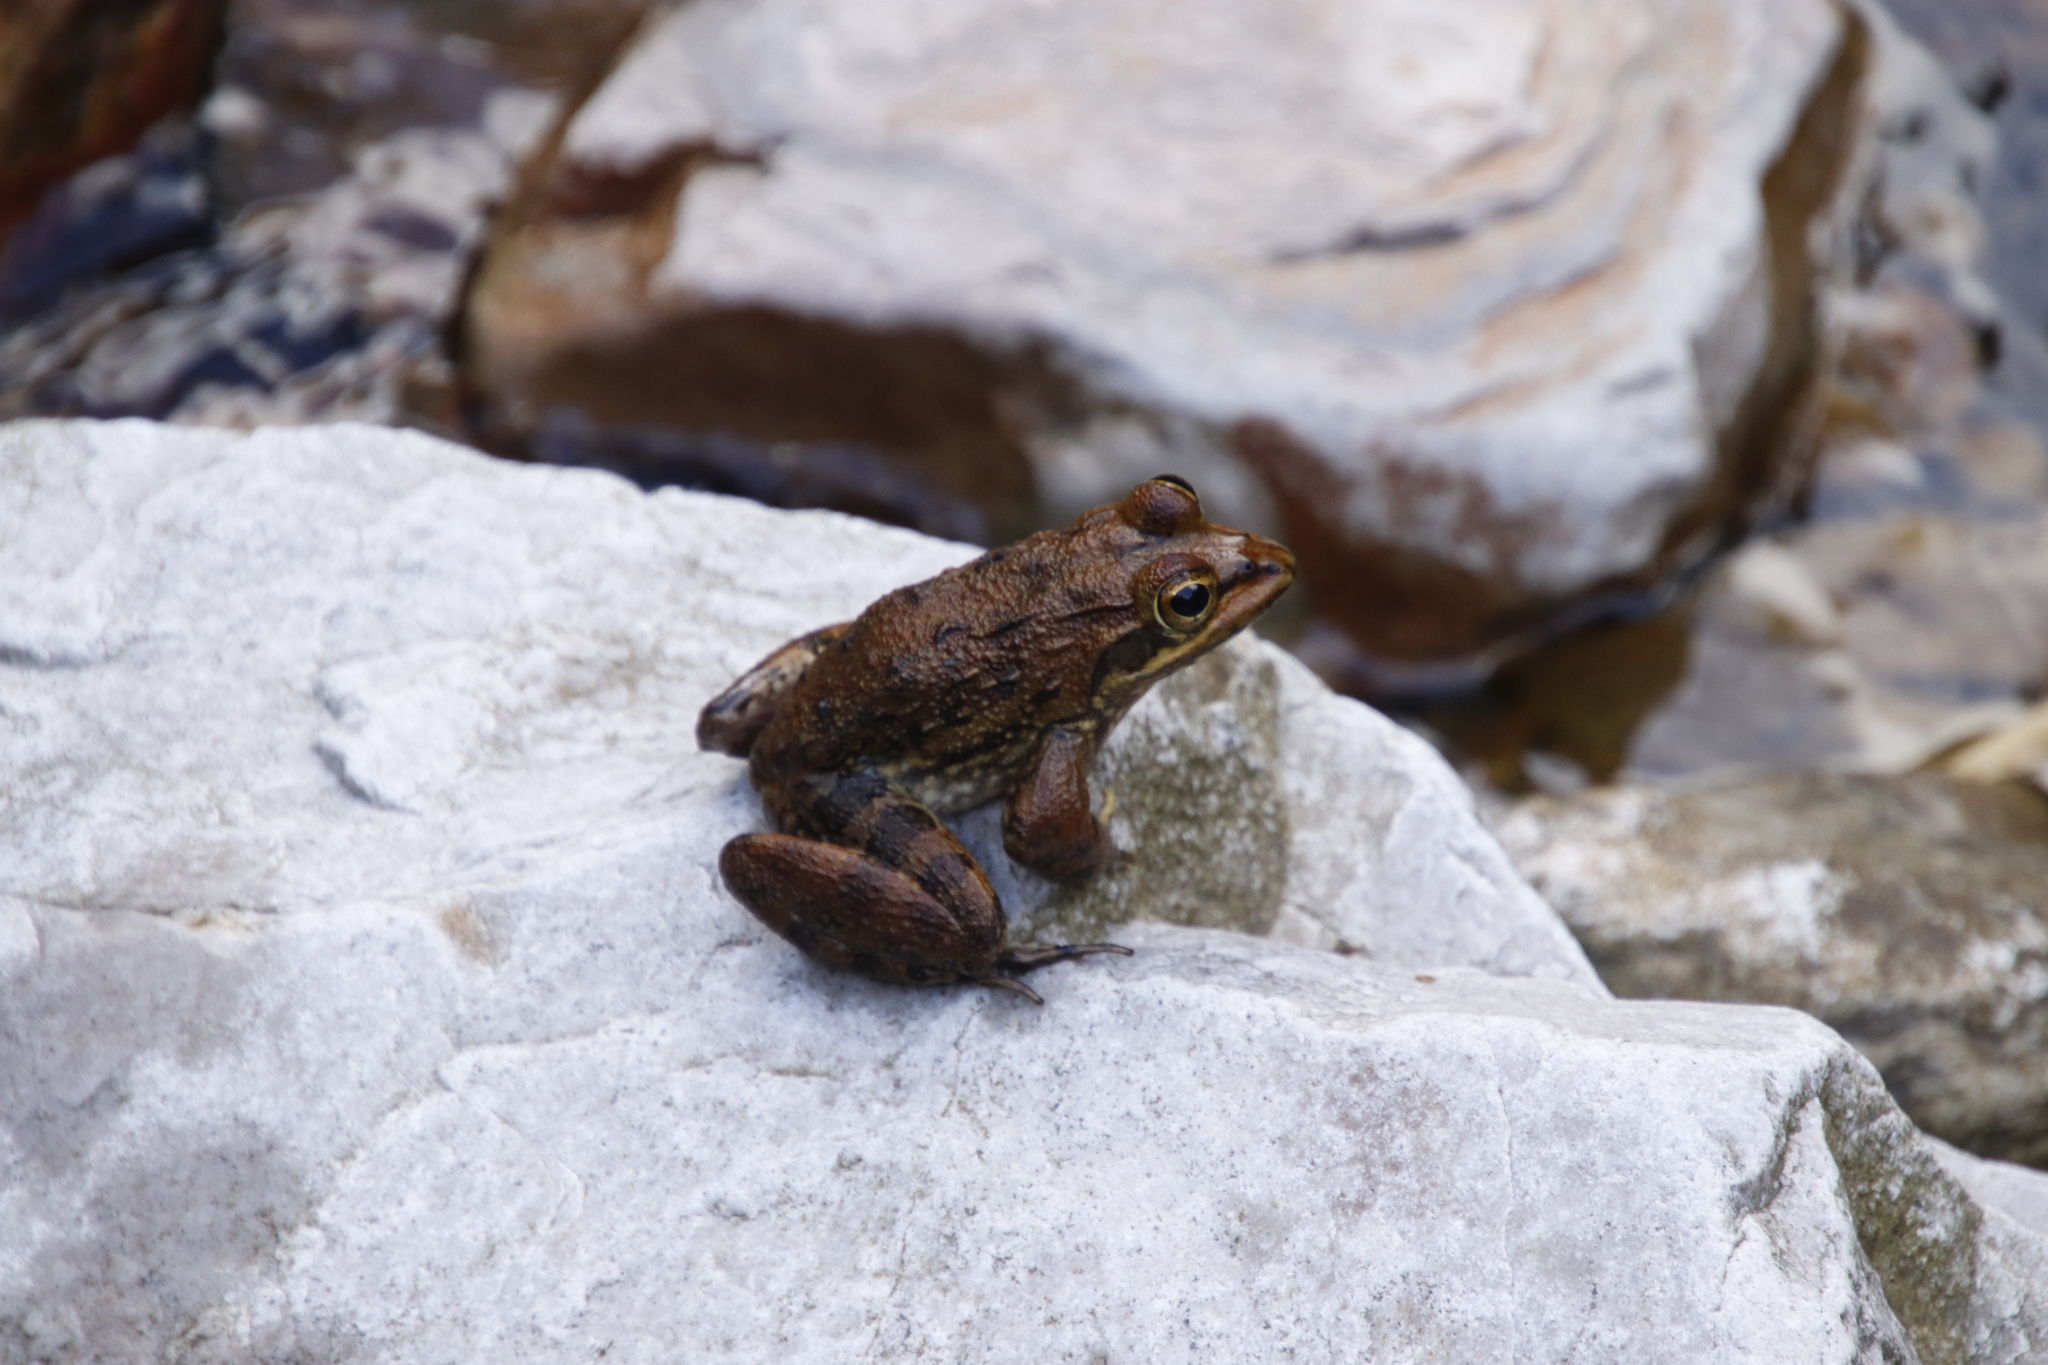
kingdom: Animalia
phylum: Chordata
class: Amphibia
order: Anura
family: Pyxicephalidae
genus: Amietia
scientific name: Amietia fuscigula
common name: Cape rana
